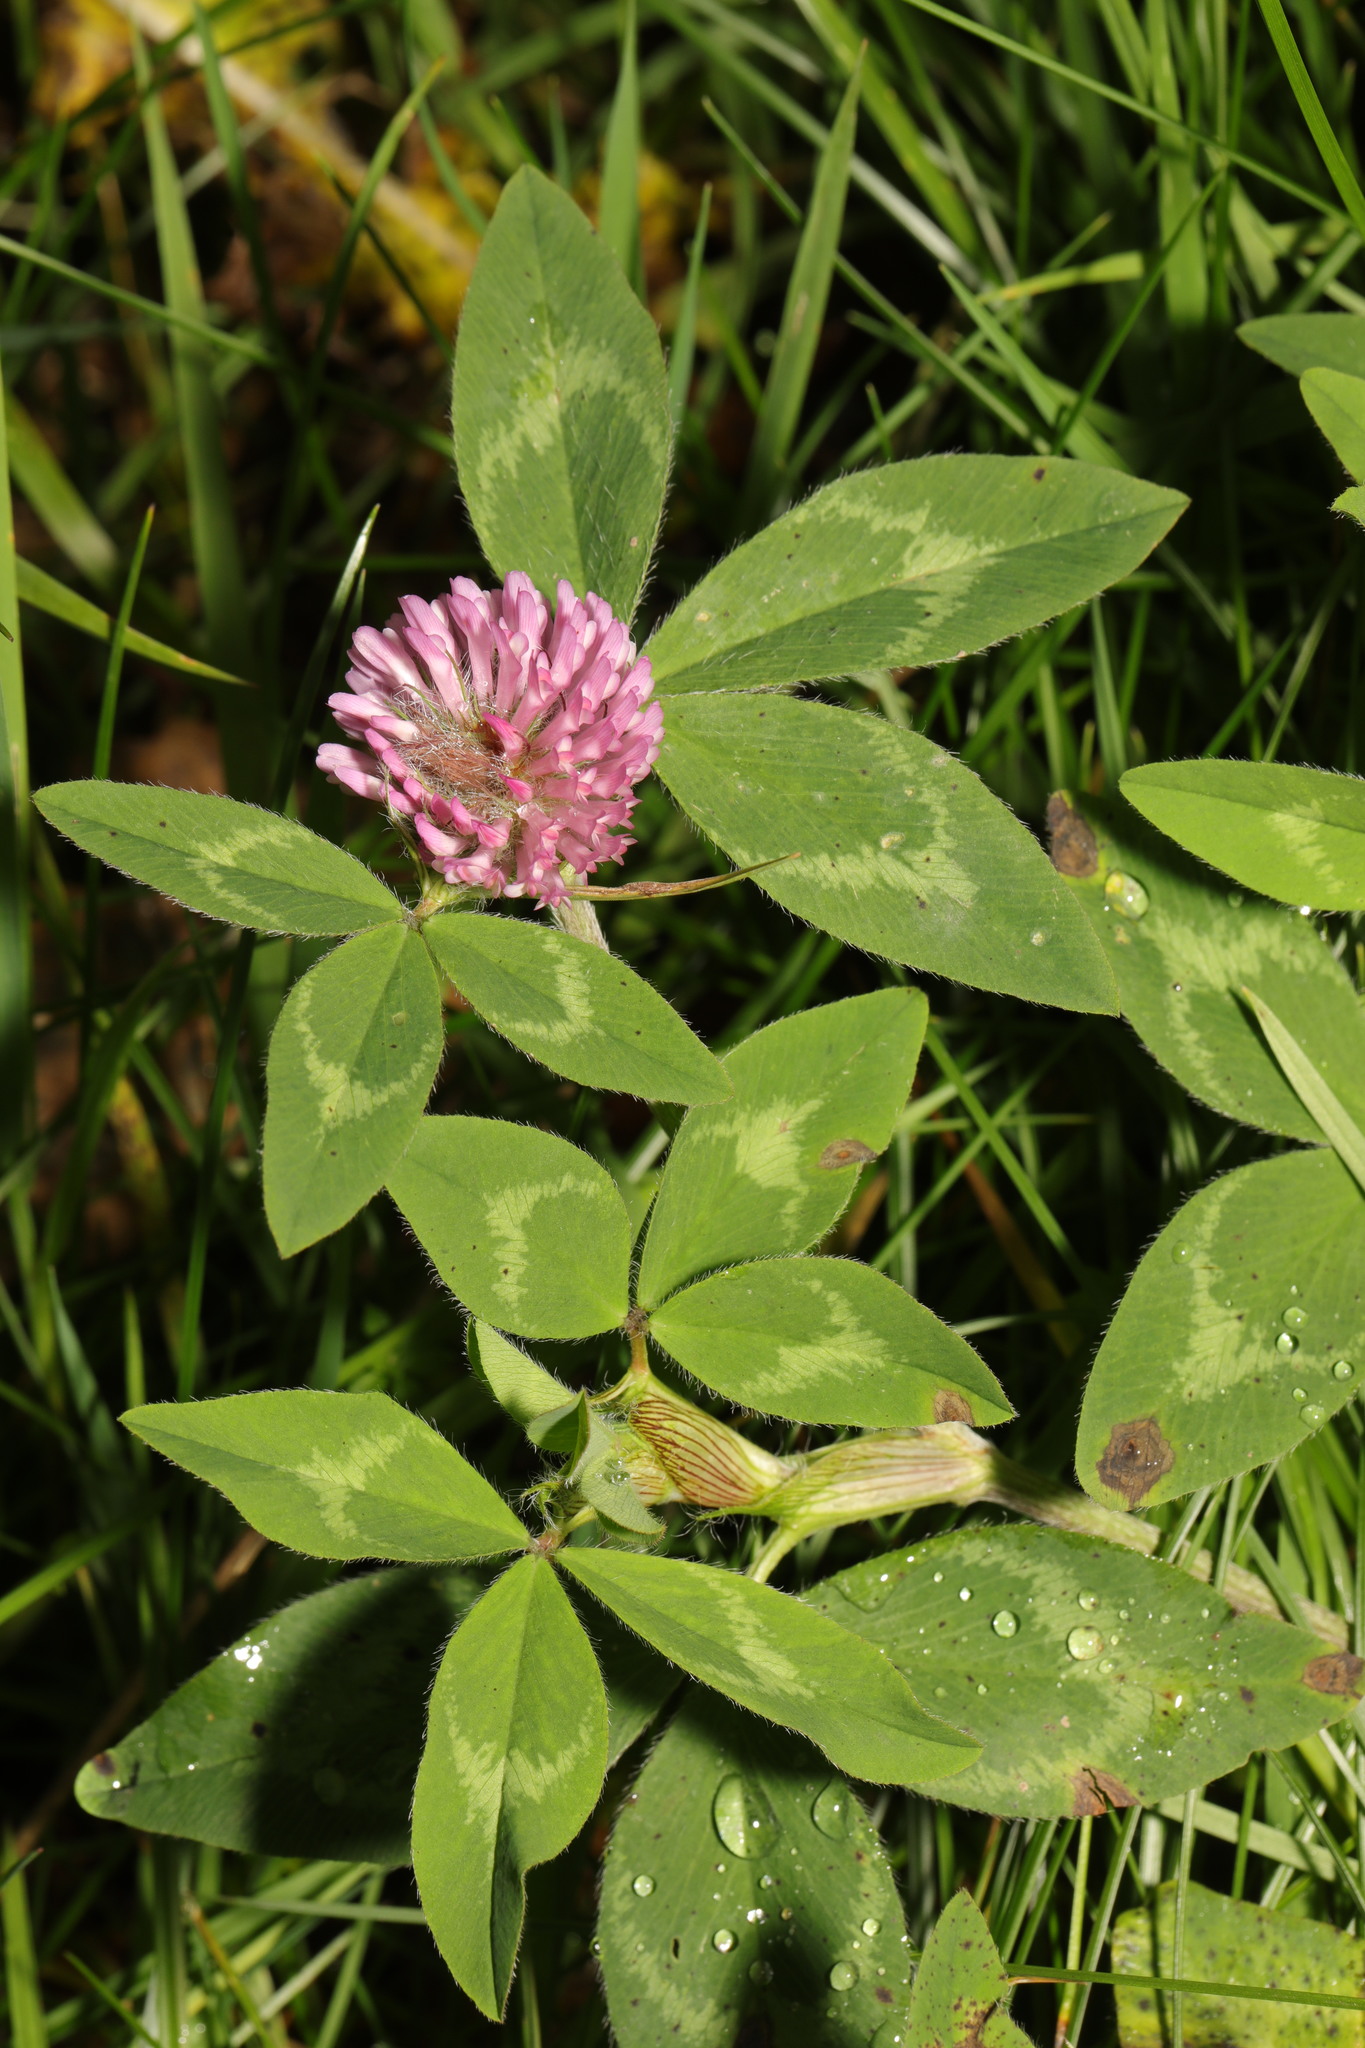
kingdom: Plantae
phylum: Tracheophyta
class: Magnoliopsida
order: Fabales
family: Fabaceae
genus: Trifolium
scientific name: Trifolium pratense
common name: Red clover
